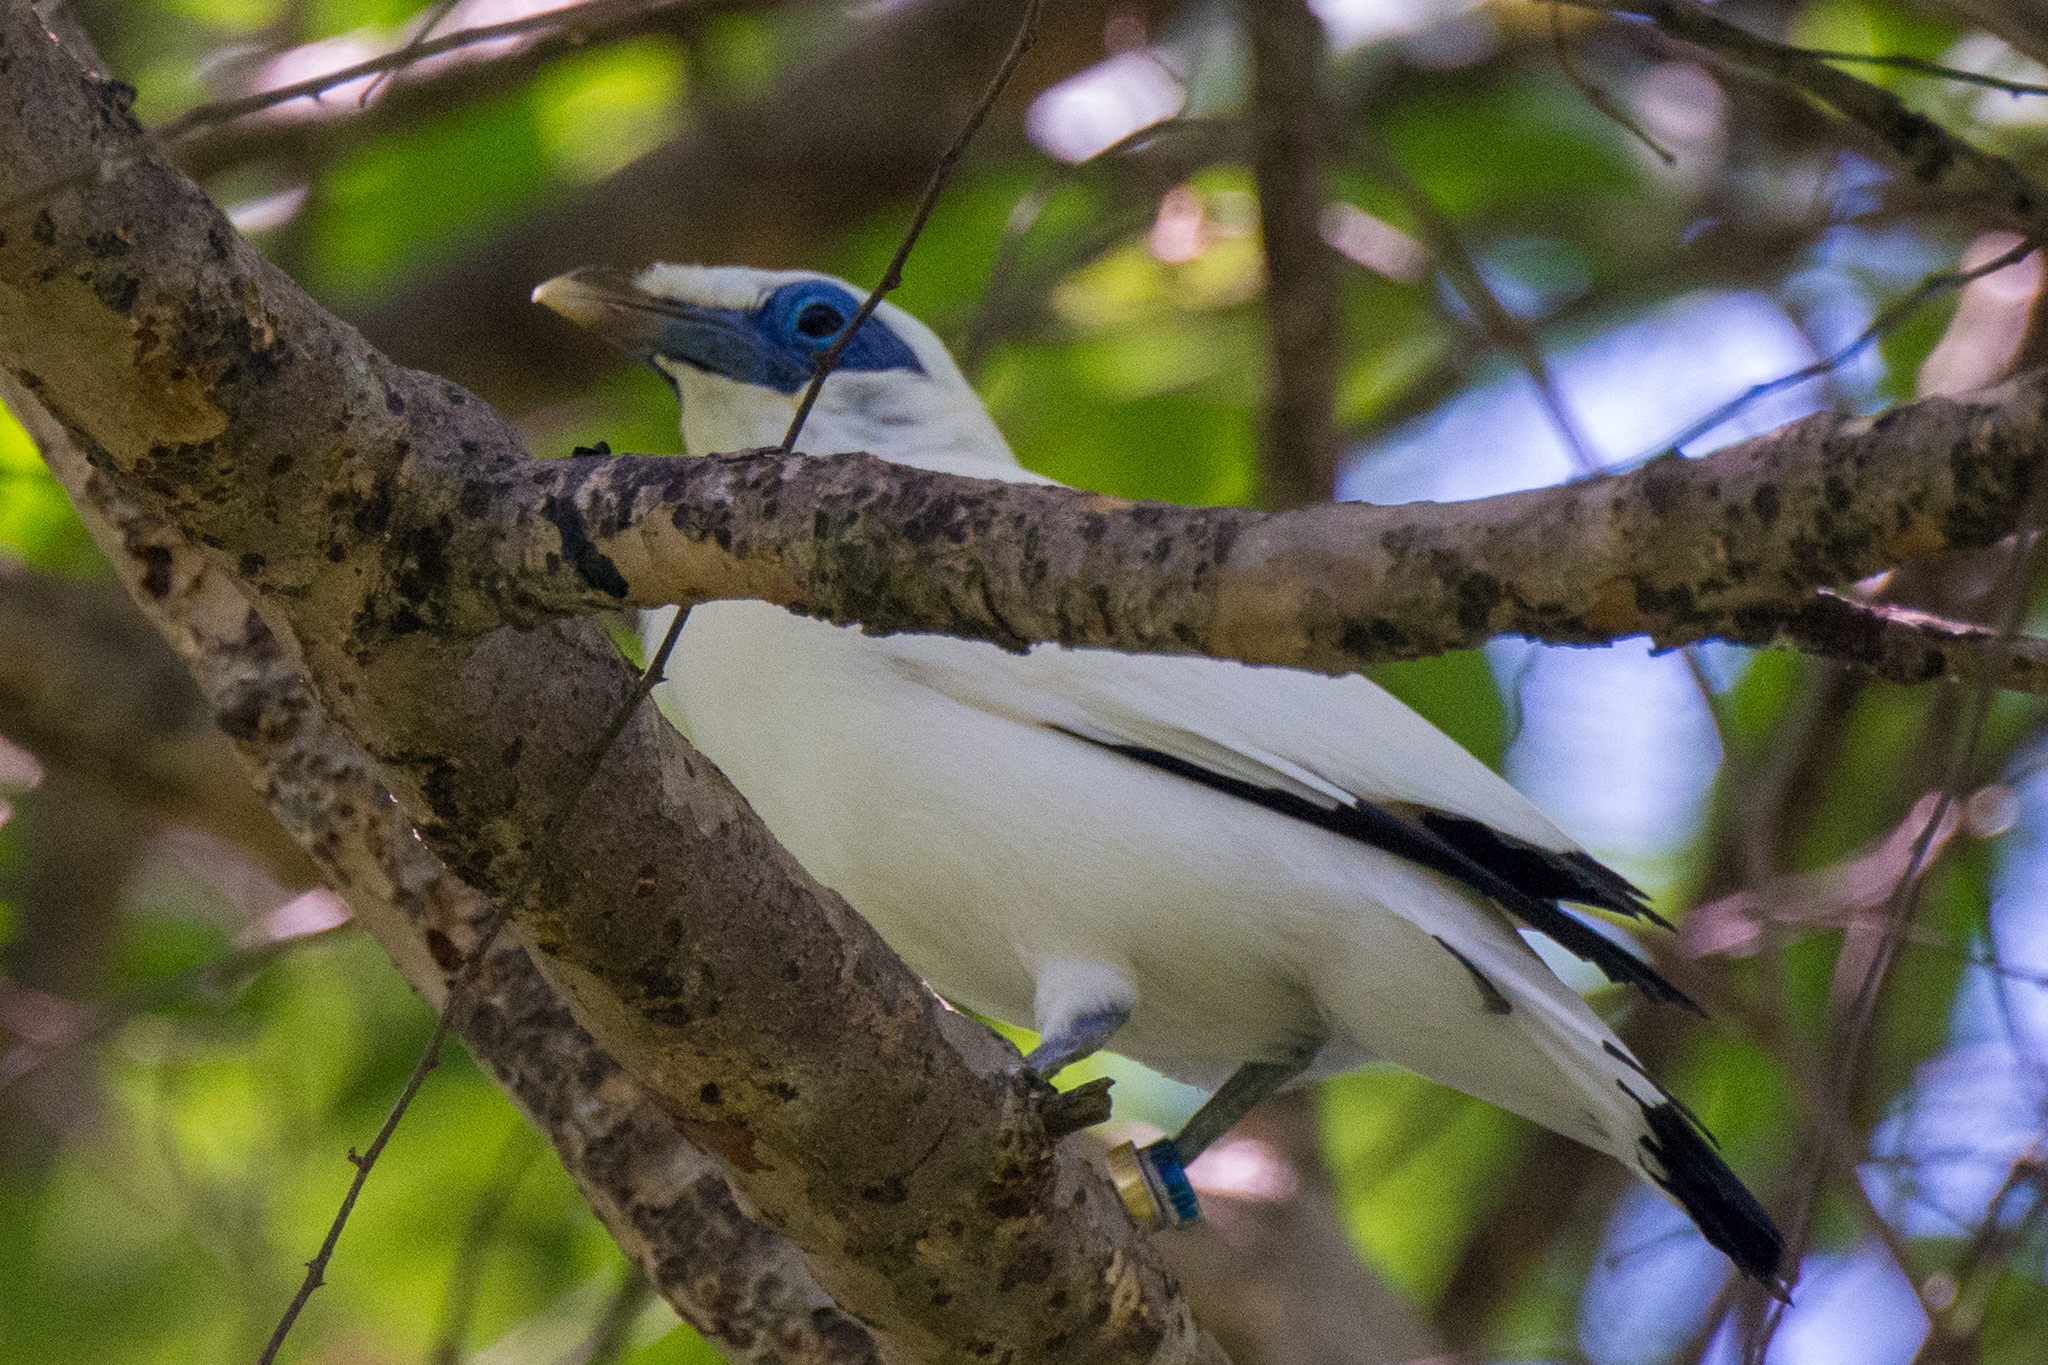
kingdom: Animalia
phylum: Chordata
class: Aves
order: Passeriformes
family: Sturnidae
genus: Leucopsar
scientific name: Leucopsar rothschildi
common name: Bali myna
